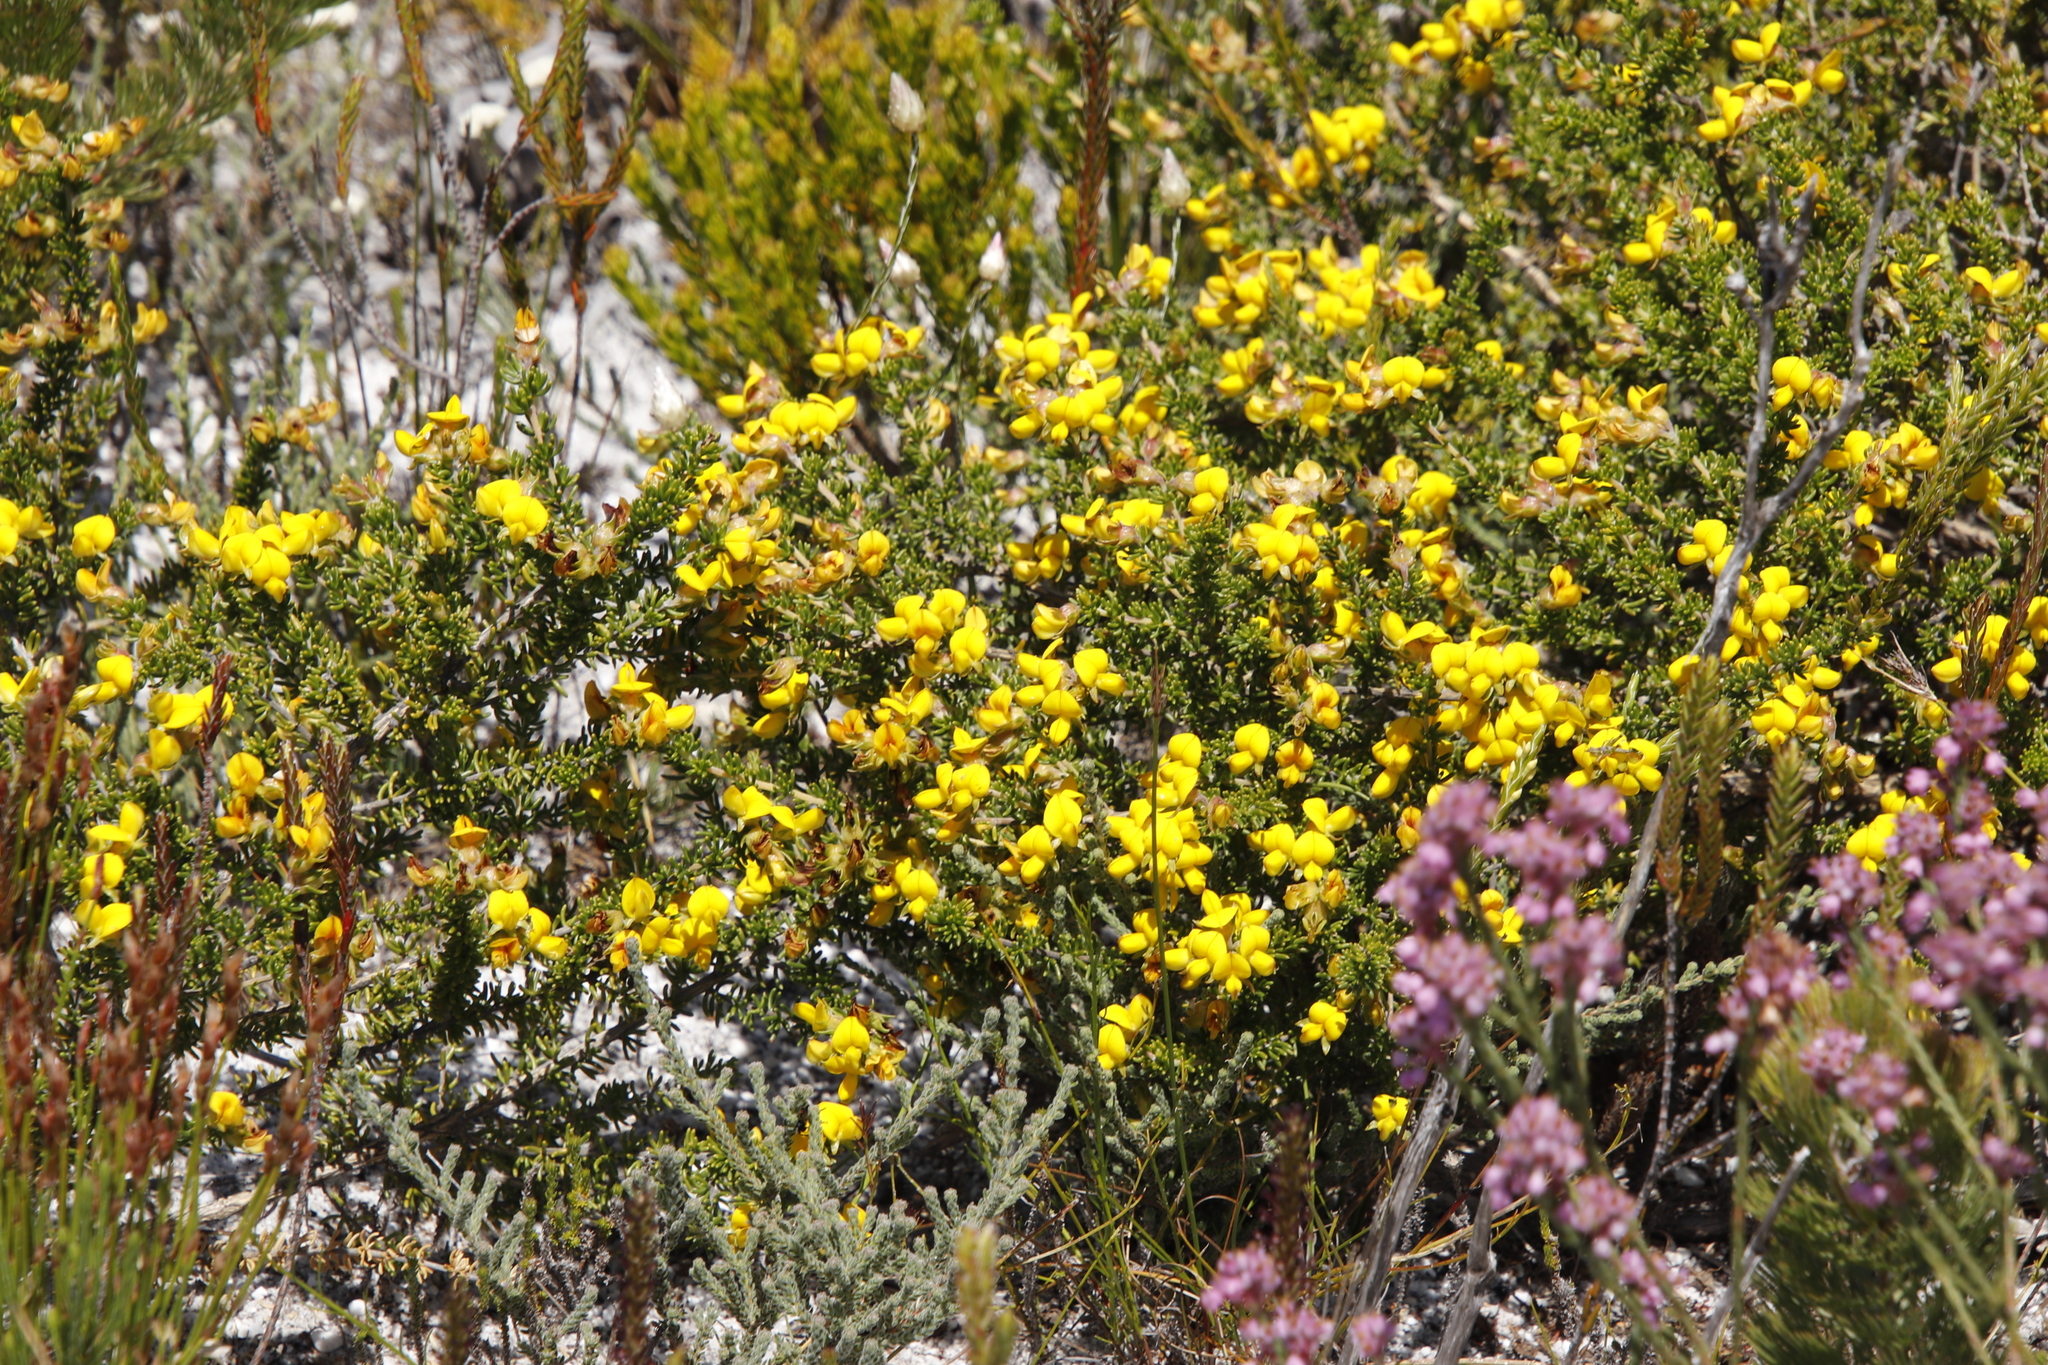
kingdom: Plantae
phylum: Tracheophyta
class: Magnoliopsida
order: Fabales
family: Fabaceae
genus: Aspalathus
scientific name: Aspalathus carnosa
